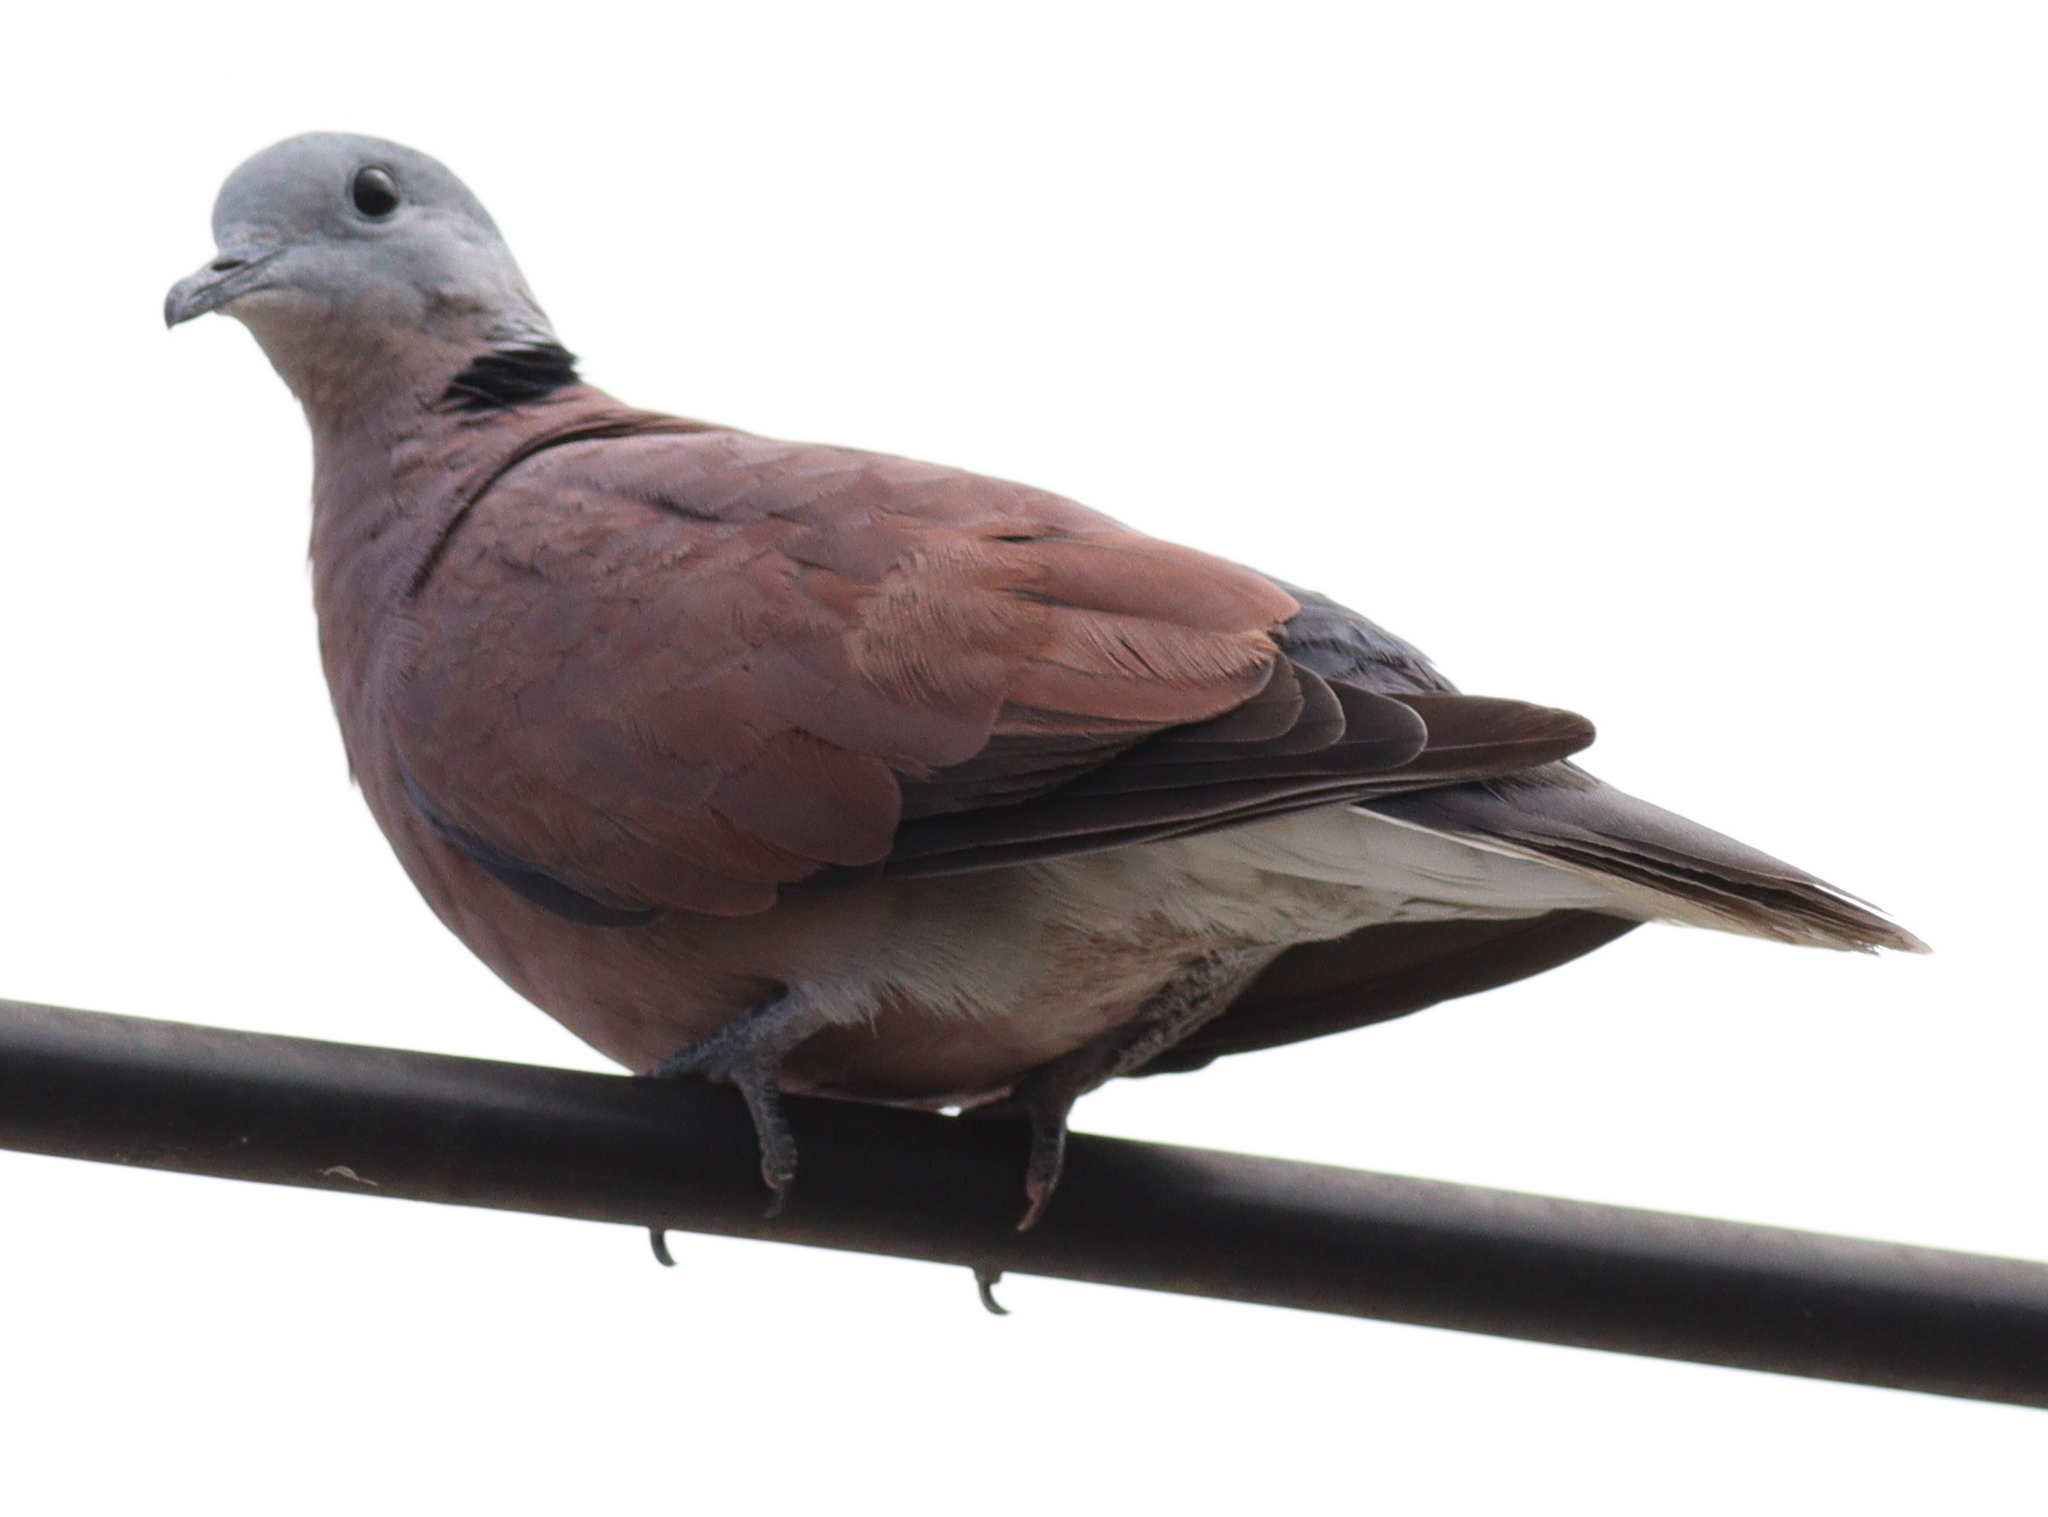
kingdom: Animalia
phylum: Chordata
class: Aves
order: Columbiformes
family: Columbidae
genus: Streptopelia
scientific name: Streptopelia tranquebarica
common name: Red turtle dove
